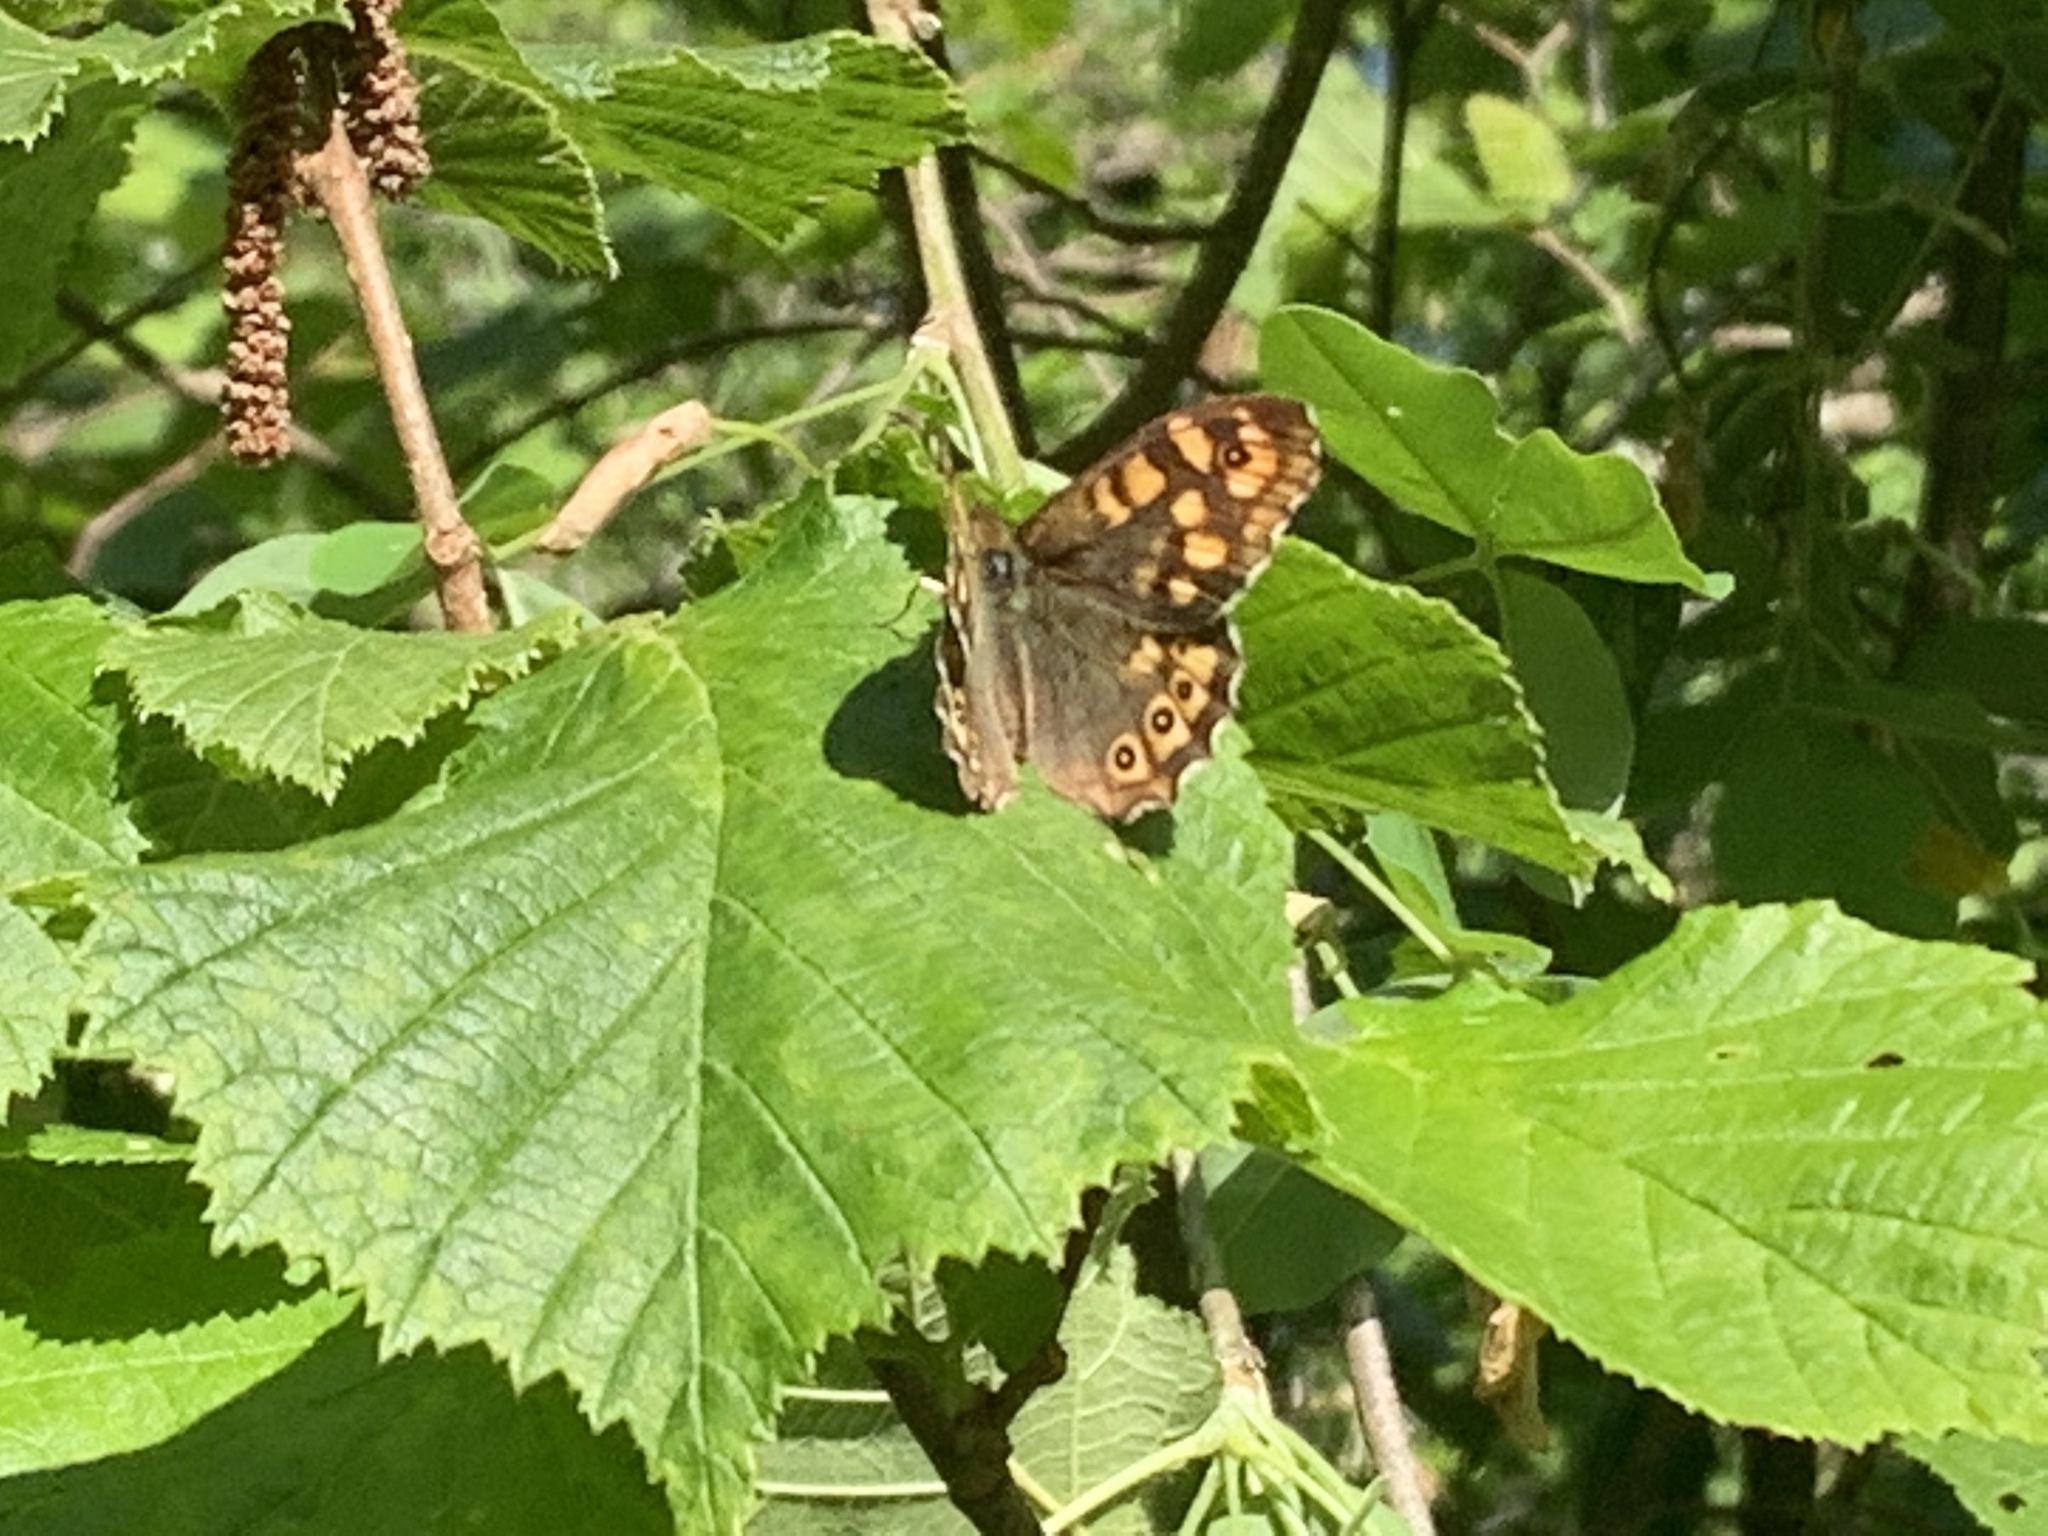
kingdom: Animalia
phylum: Arthropoda
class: Insecta
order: Lepidoptera
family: Nymphalidae
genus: Pararge
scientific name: Pararge aegeria
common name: Speckled wood
